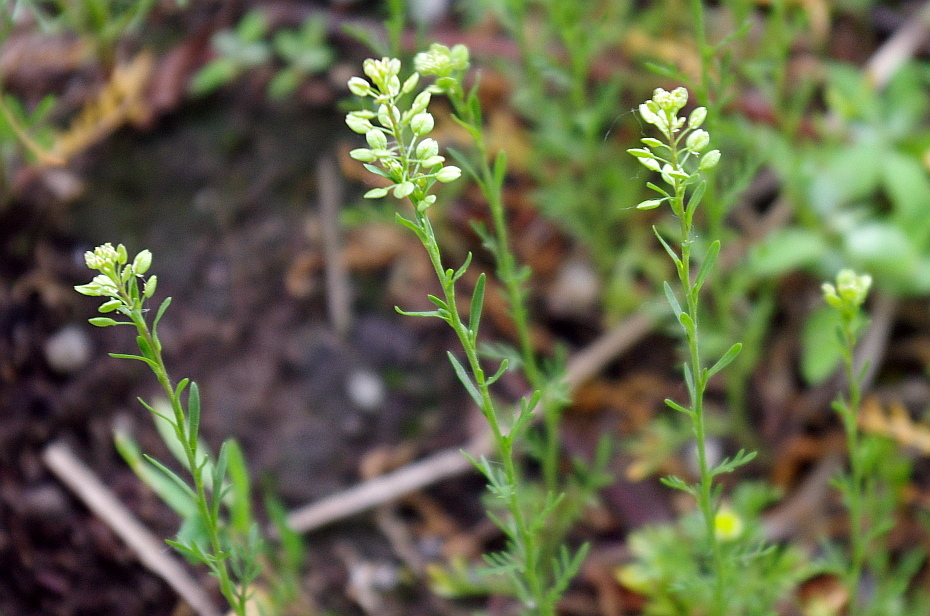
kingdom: Plantae
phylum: Tracheophyta
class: Magnoliopsida
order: Brassicales
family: Brassicaceae
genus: Lepidium
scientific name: Lepidium ruderale
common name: Narrow-leaved pepperwort
